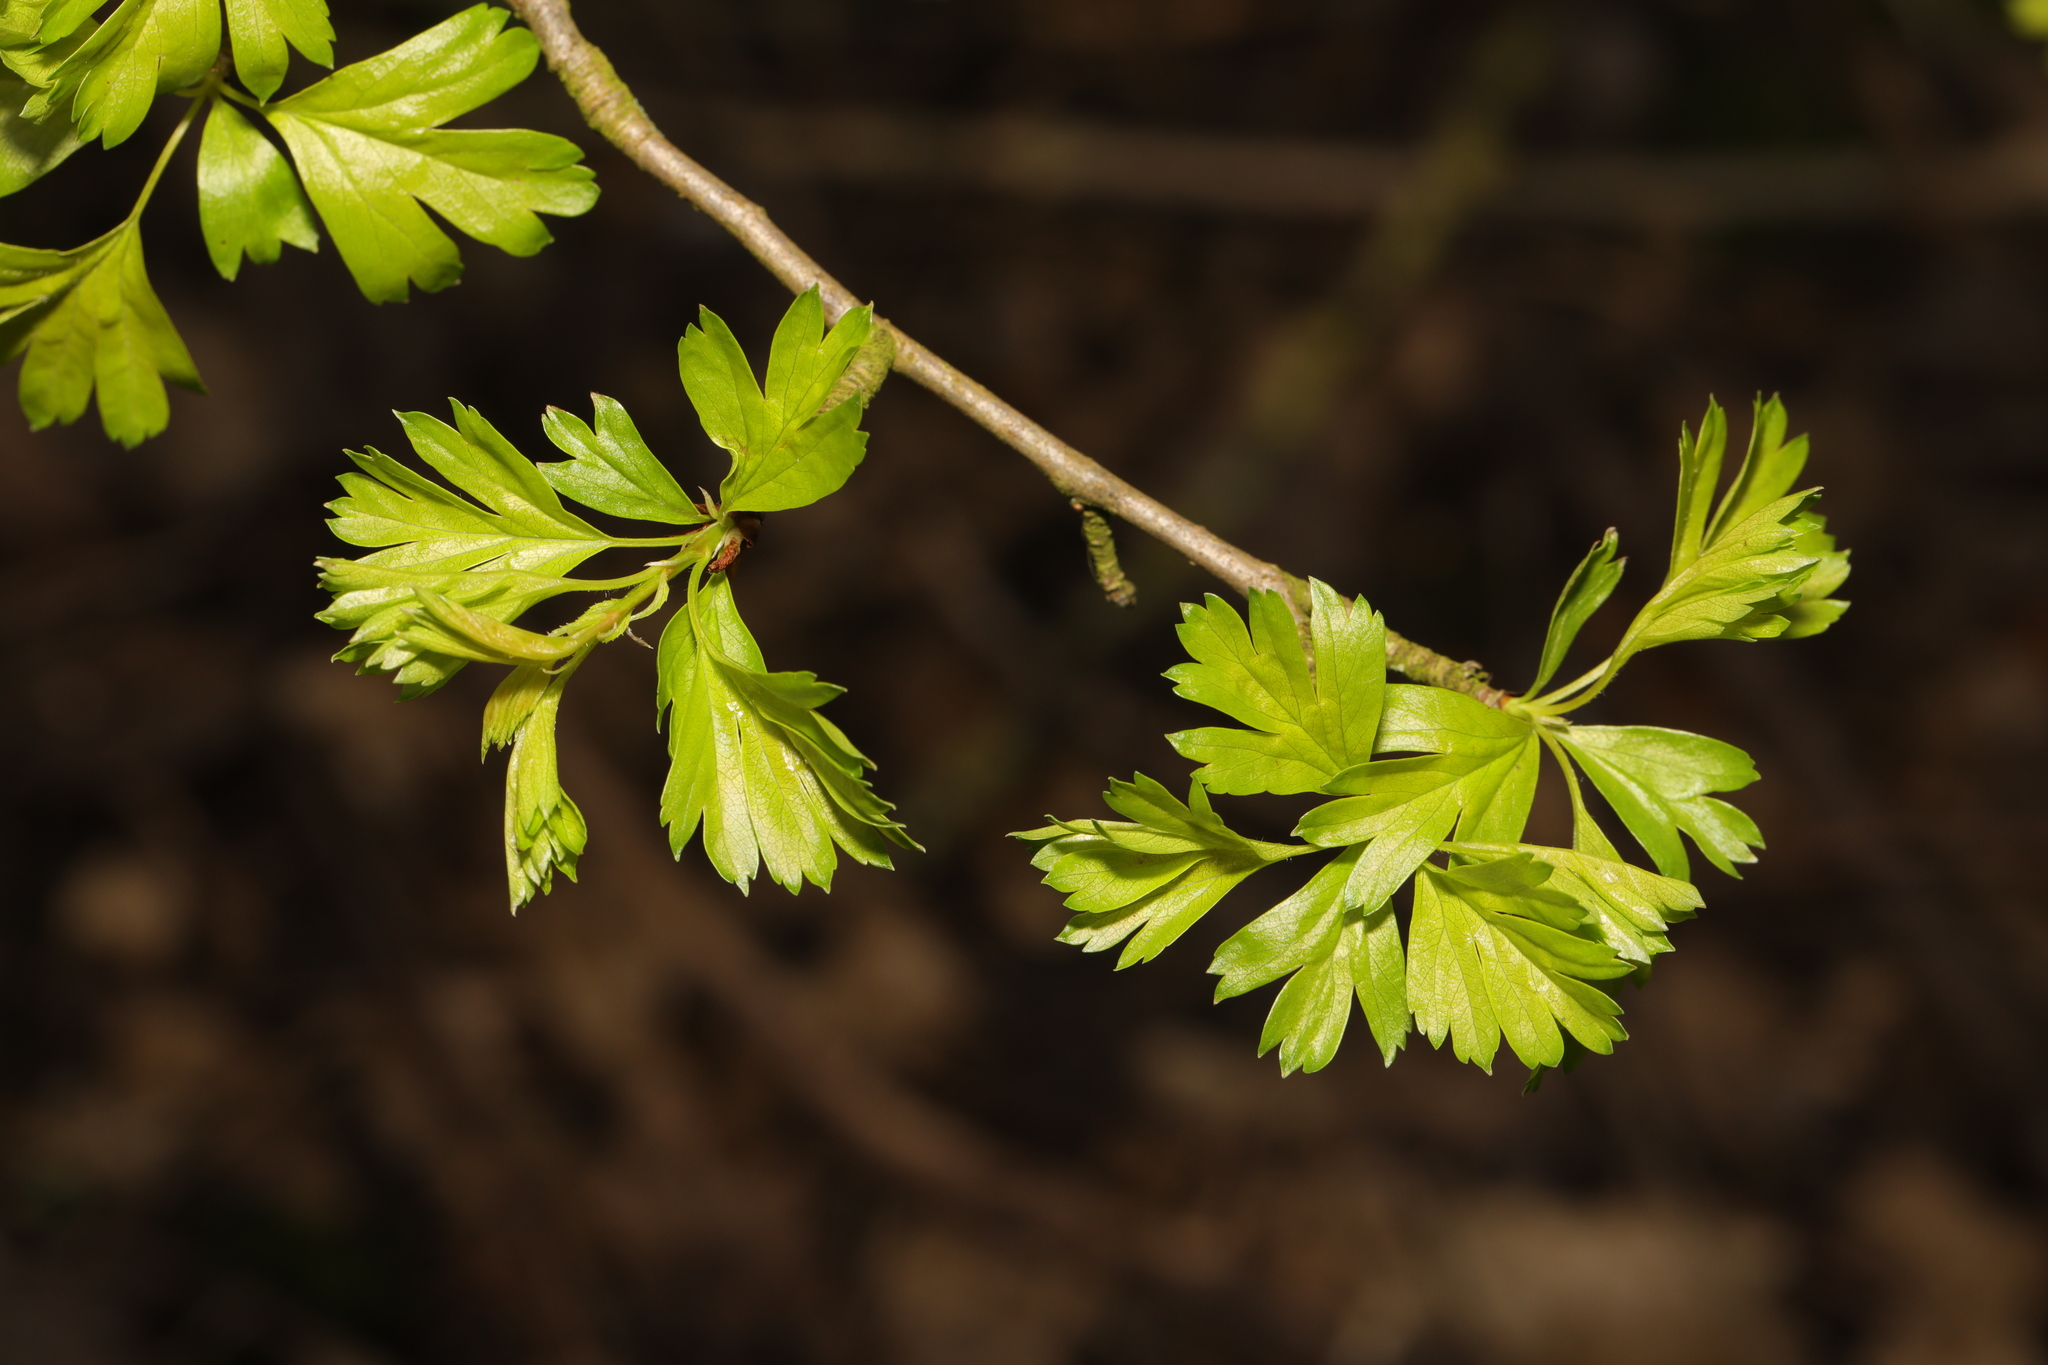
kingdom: Plantae
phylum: Tracheophyta
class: Magnoliopsida
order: Rosales
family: Rosaceae
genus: Crataegus
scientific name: Crataegus monogyna
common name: Hawthorn
